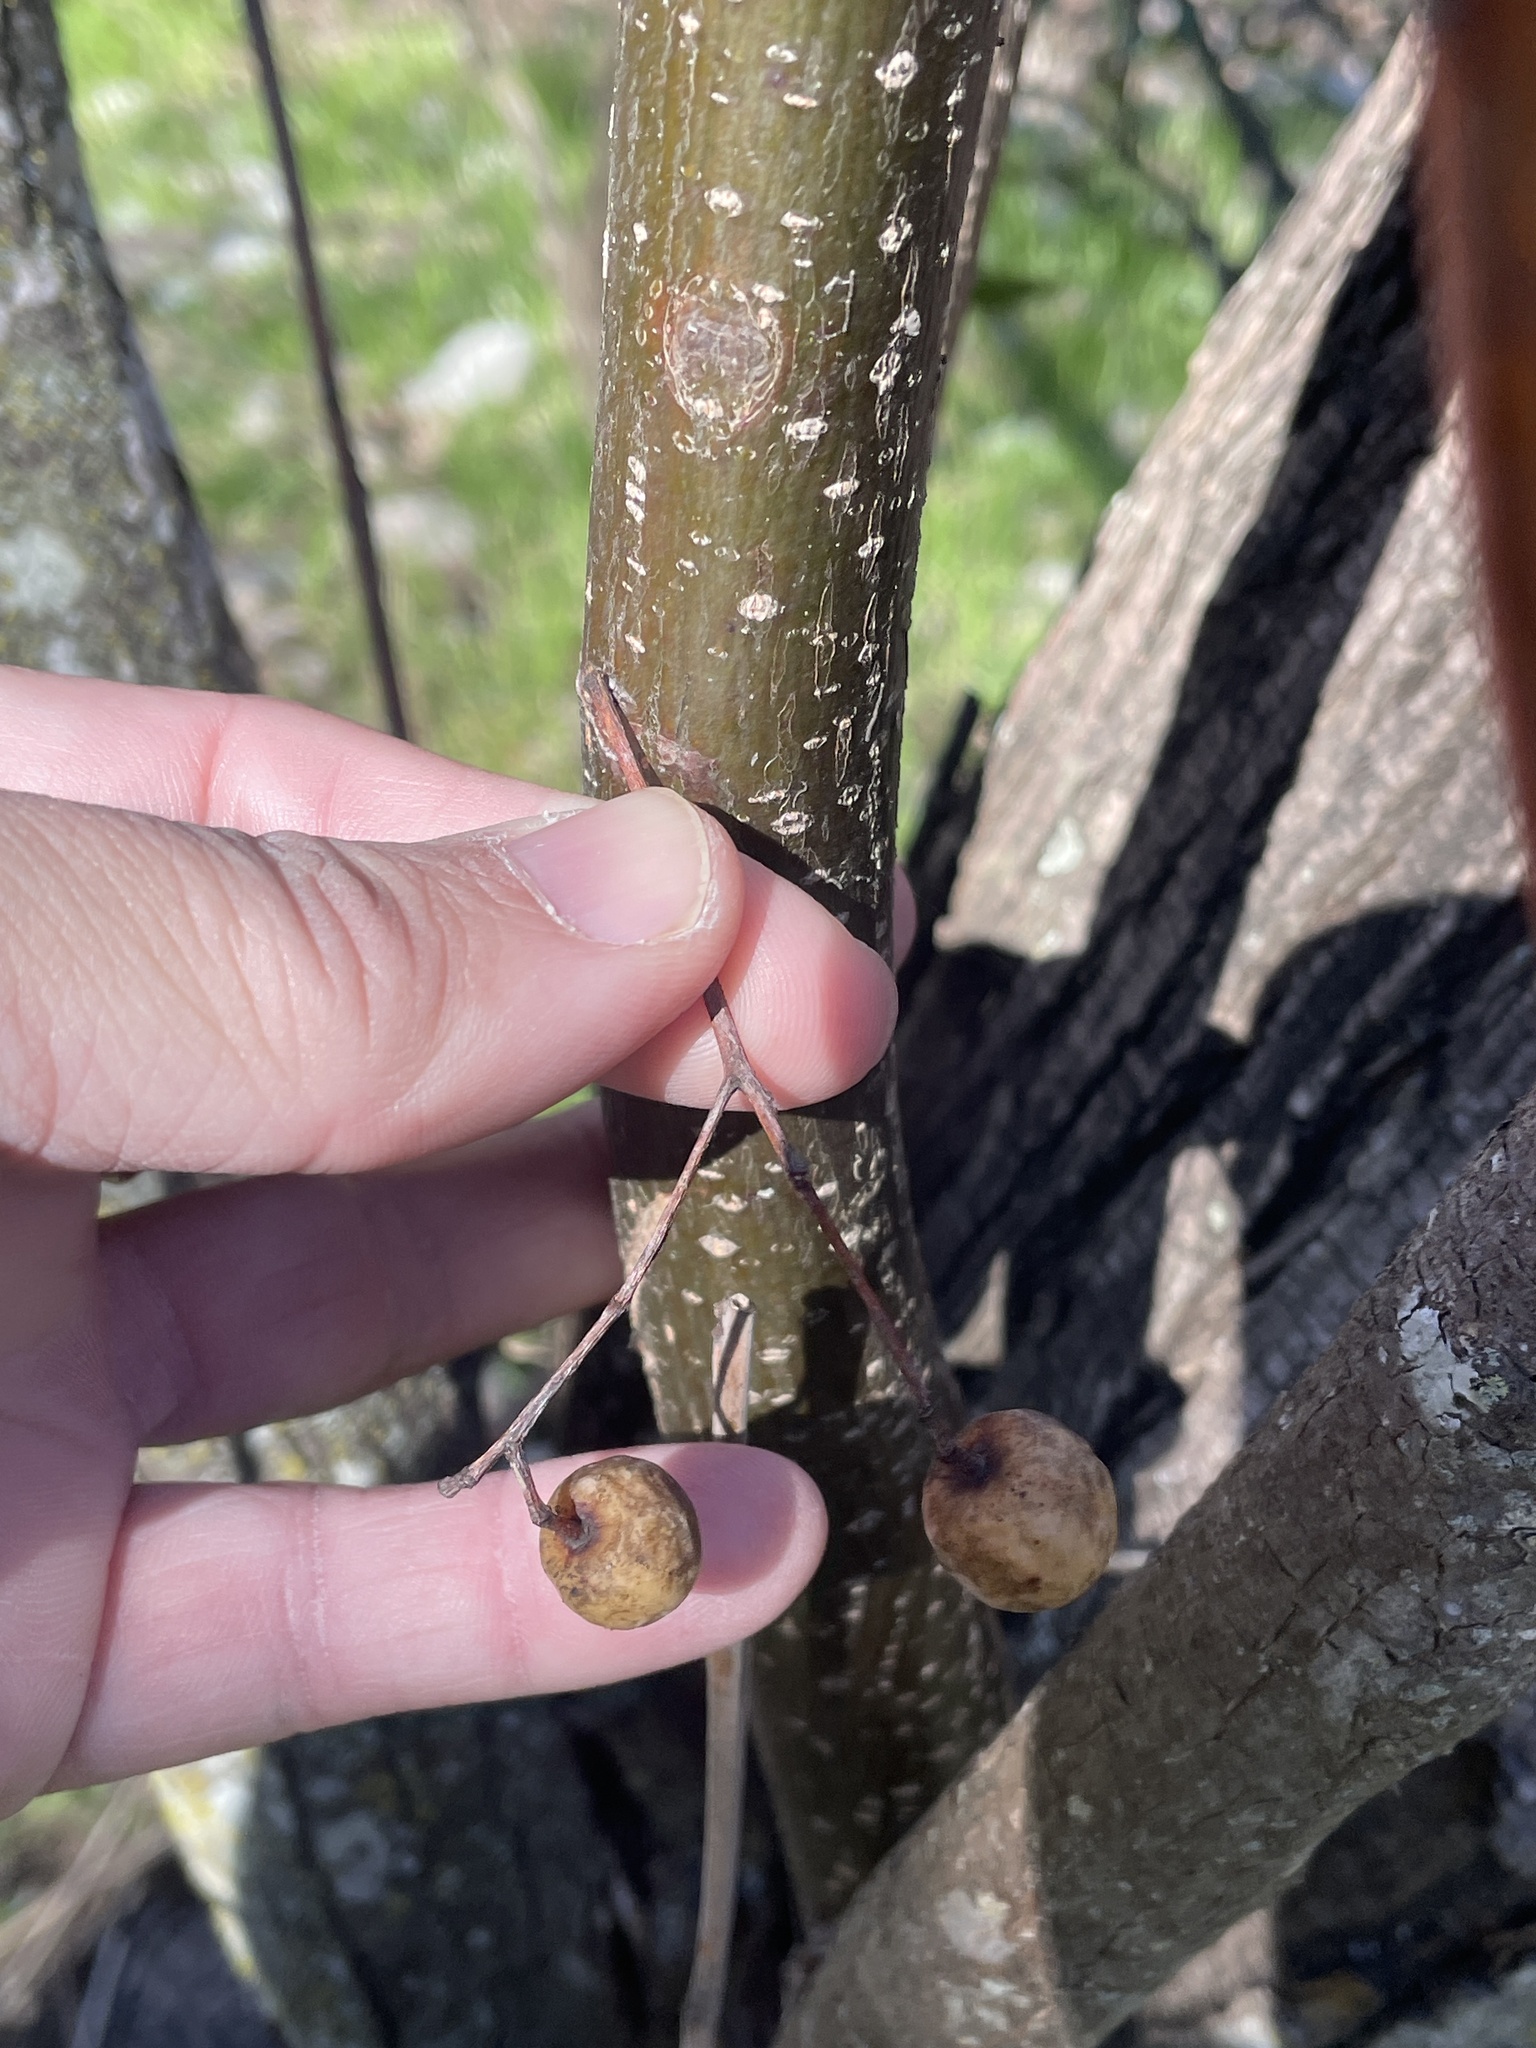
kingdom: Plantae
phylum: Tracheophyta
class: Magnoliopsida
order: Sapindales
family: Meliaceae
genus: Melia
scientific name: Melia azedarach
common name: Chinaberrytree
